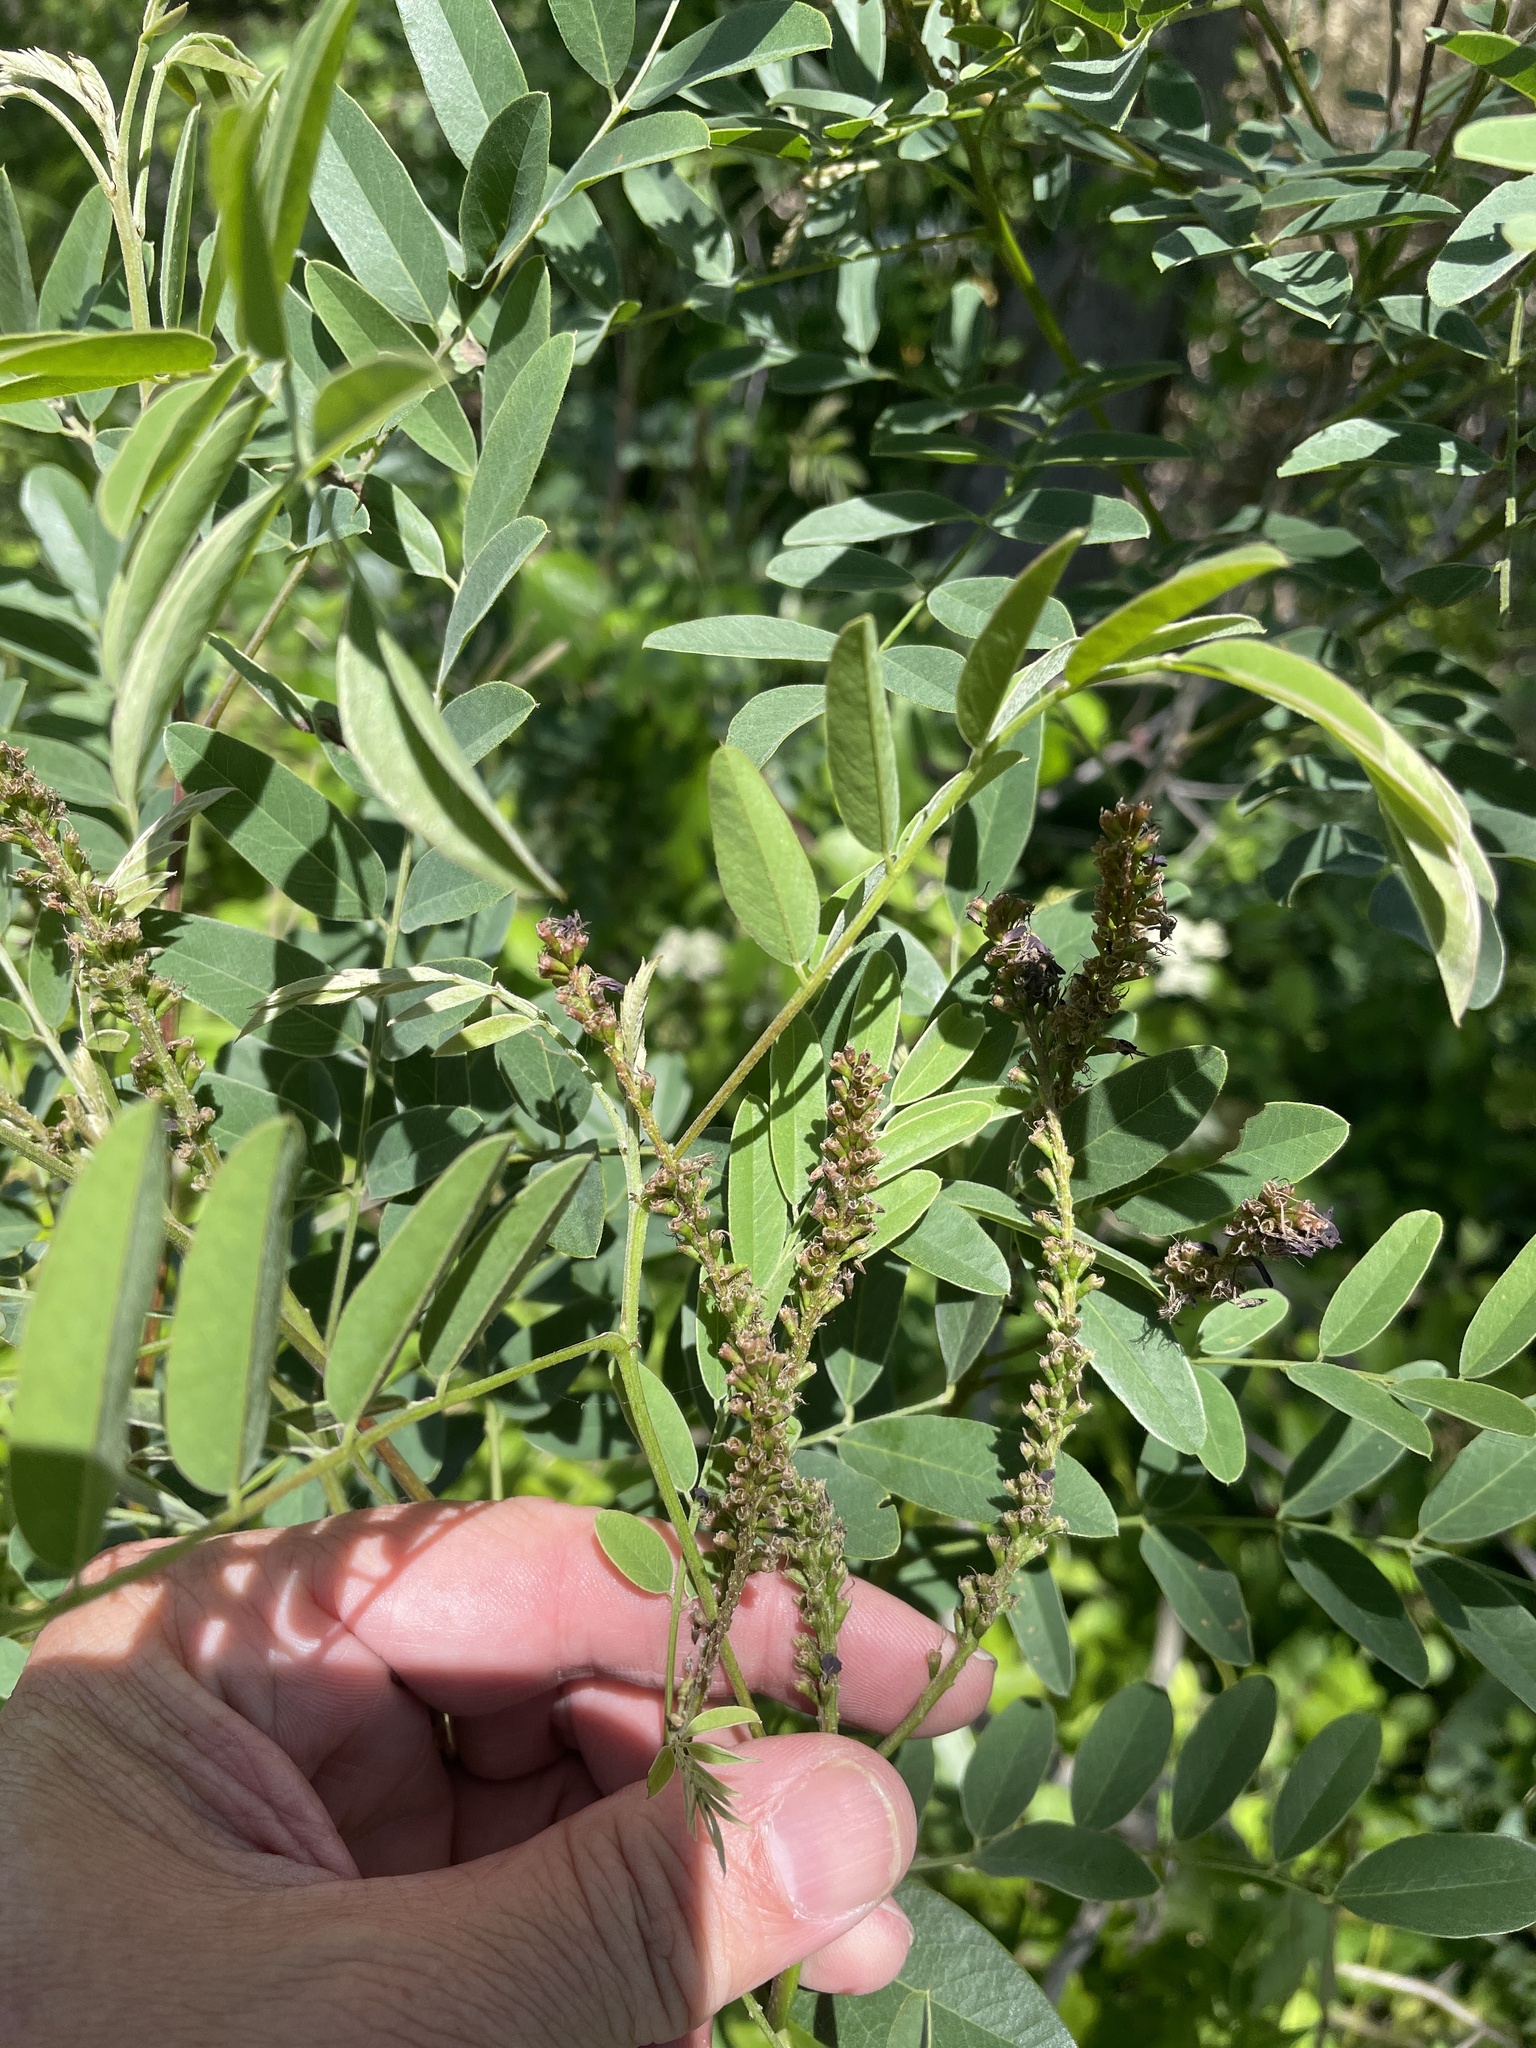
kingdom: Plantae
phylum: Tracheophyta
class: Magnoliopsida
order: Fabales
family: Fabaceae
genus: Amorpha
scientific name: Amorpha fruticosa
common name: False indigo
